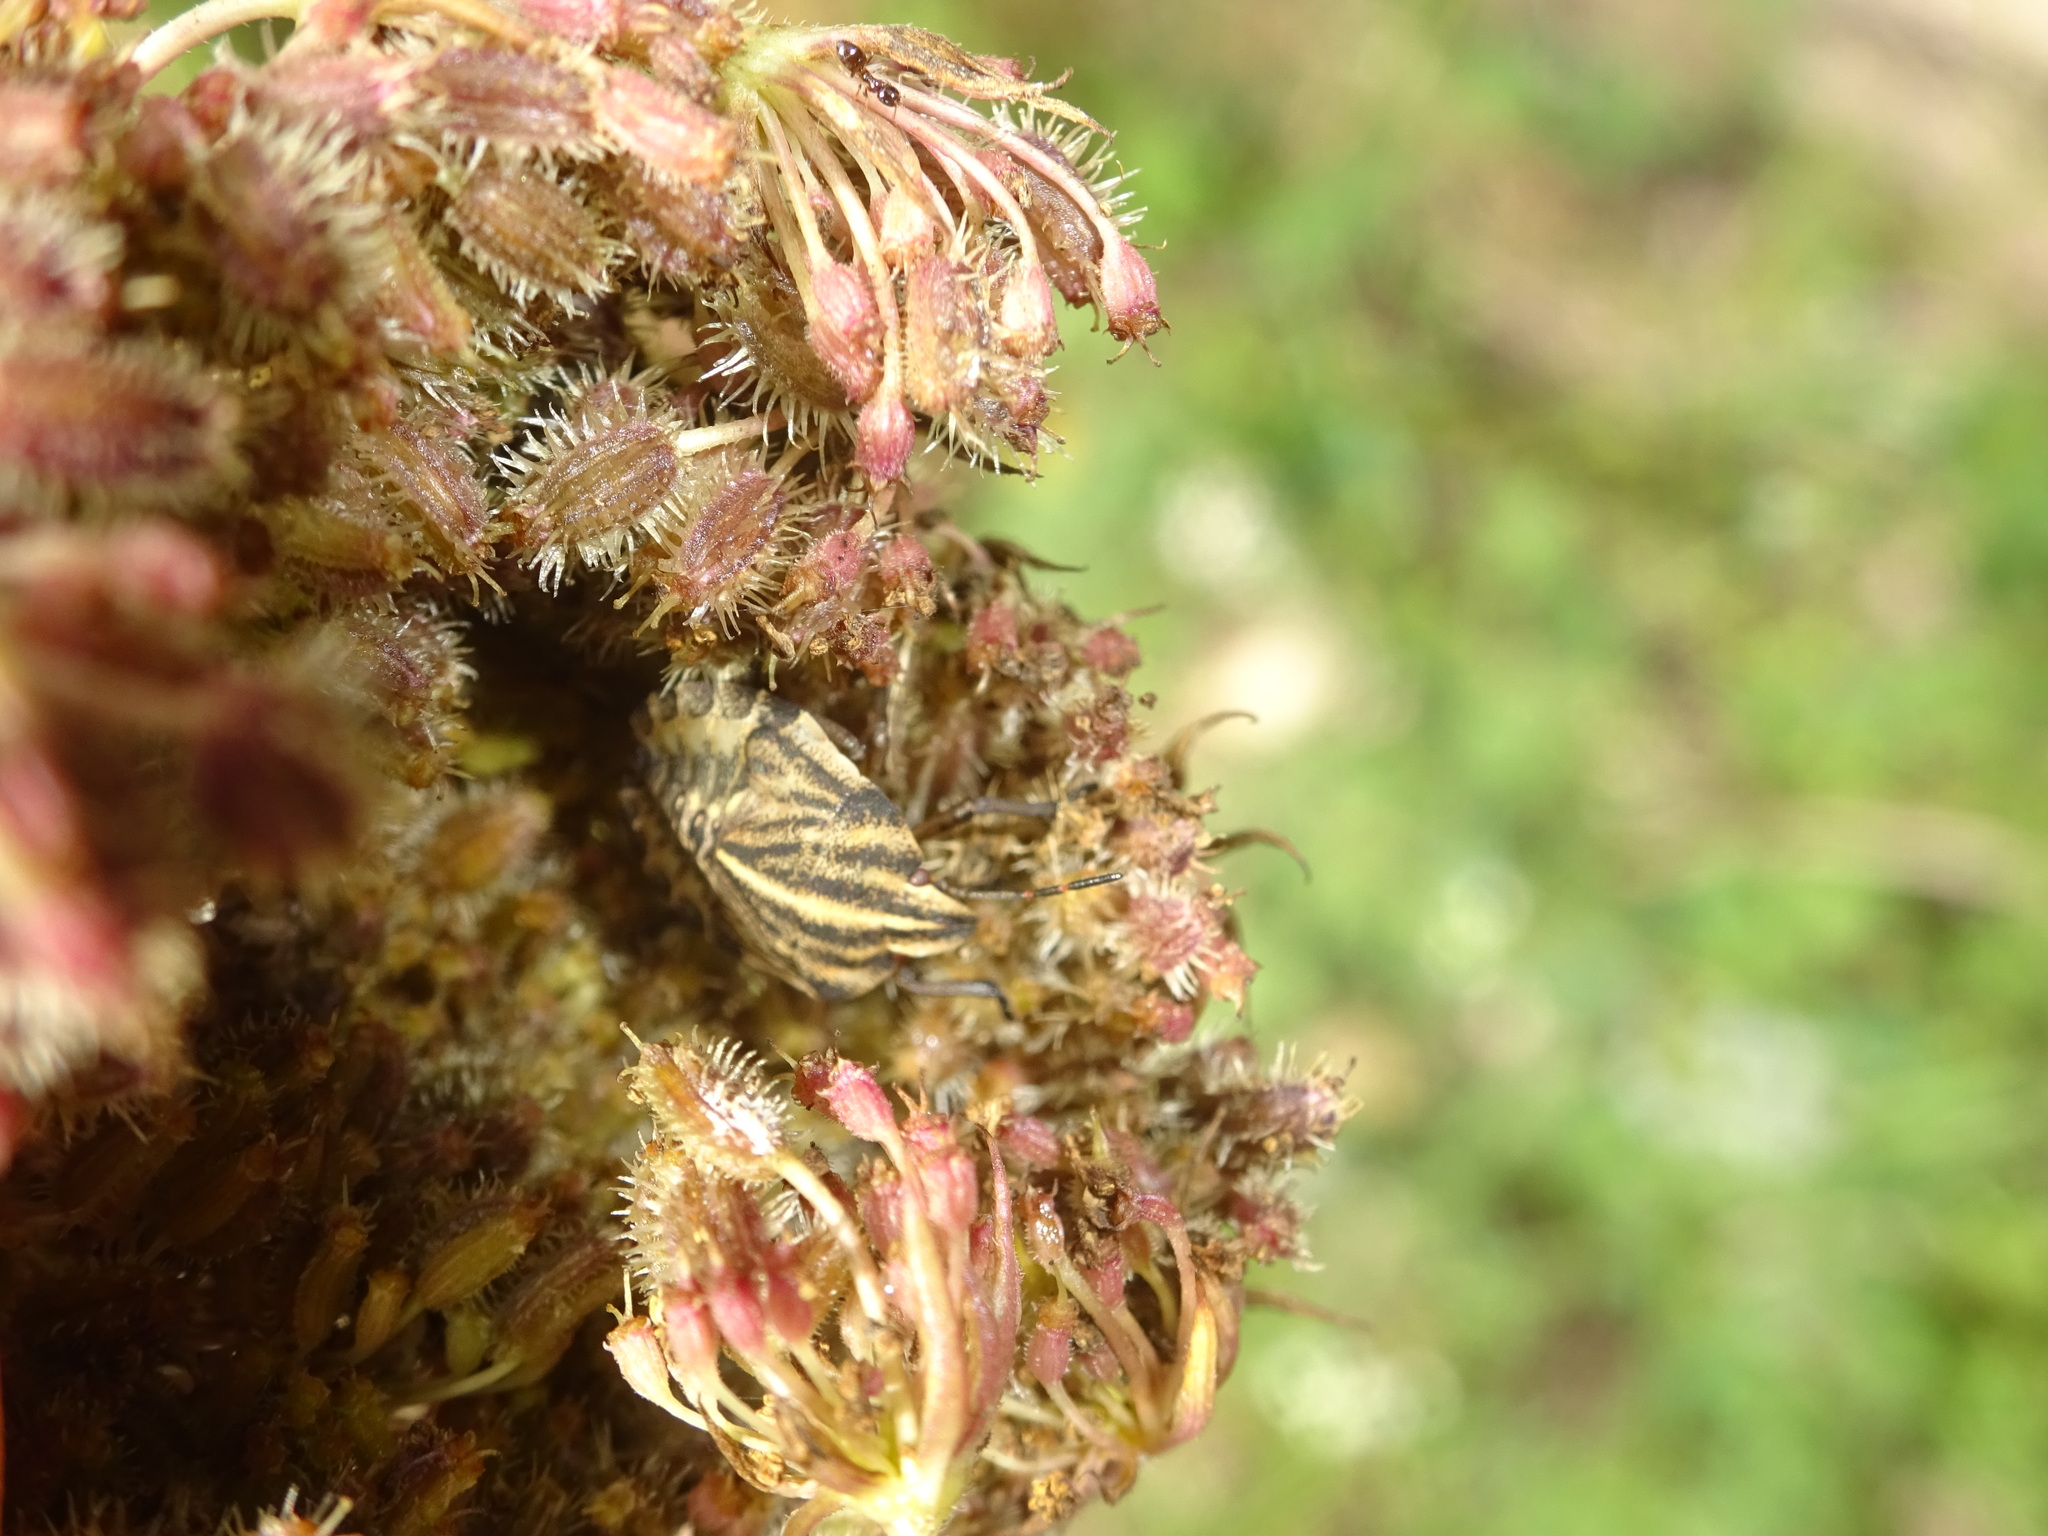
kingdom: Animalia
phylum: Arthropoda
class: Insecta
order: Hemiptera
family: Pentatomidae
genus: Graphosoma
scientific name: Graphosoma italicum
